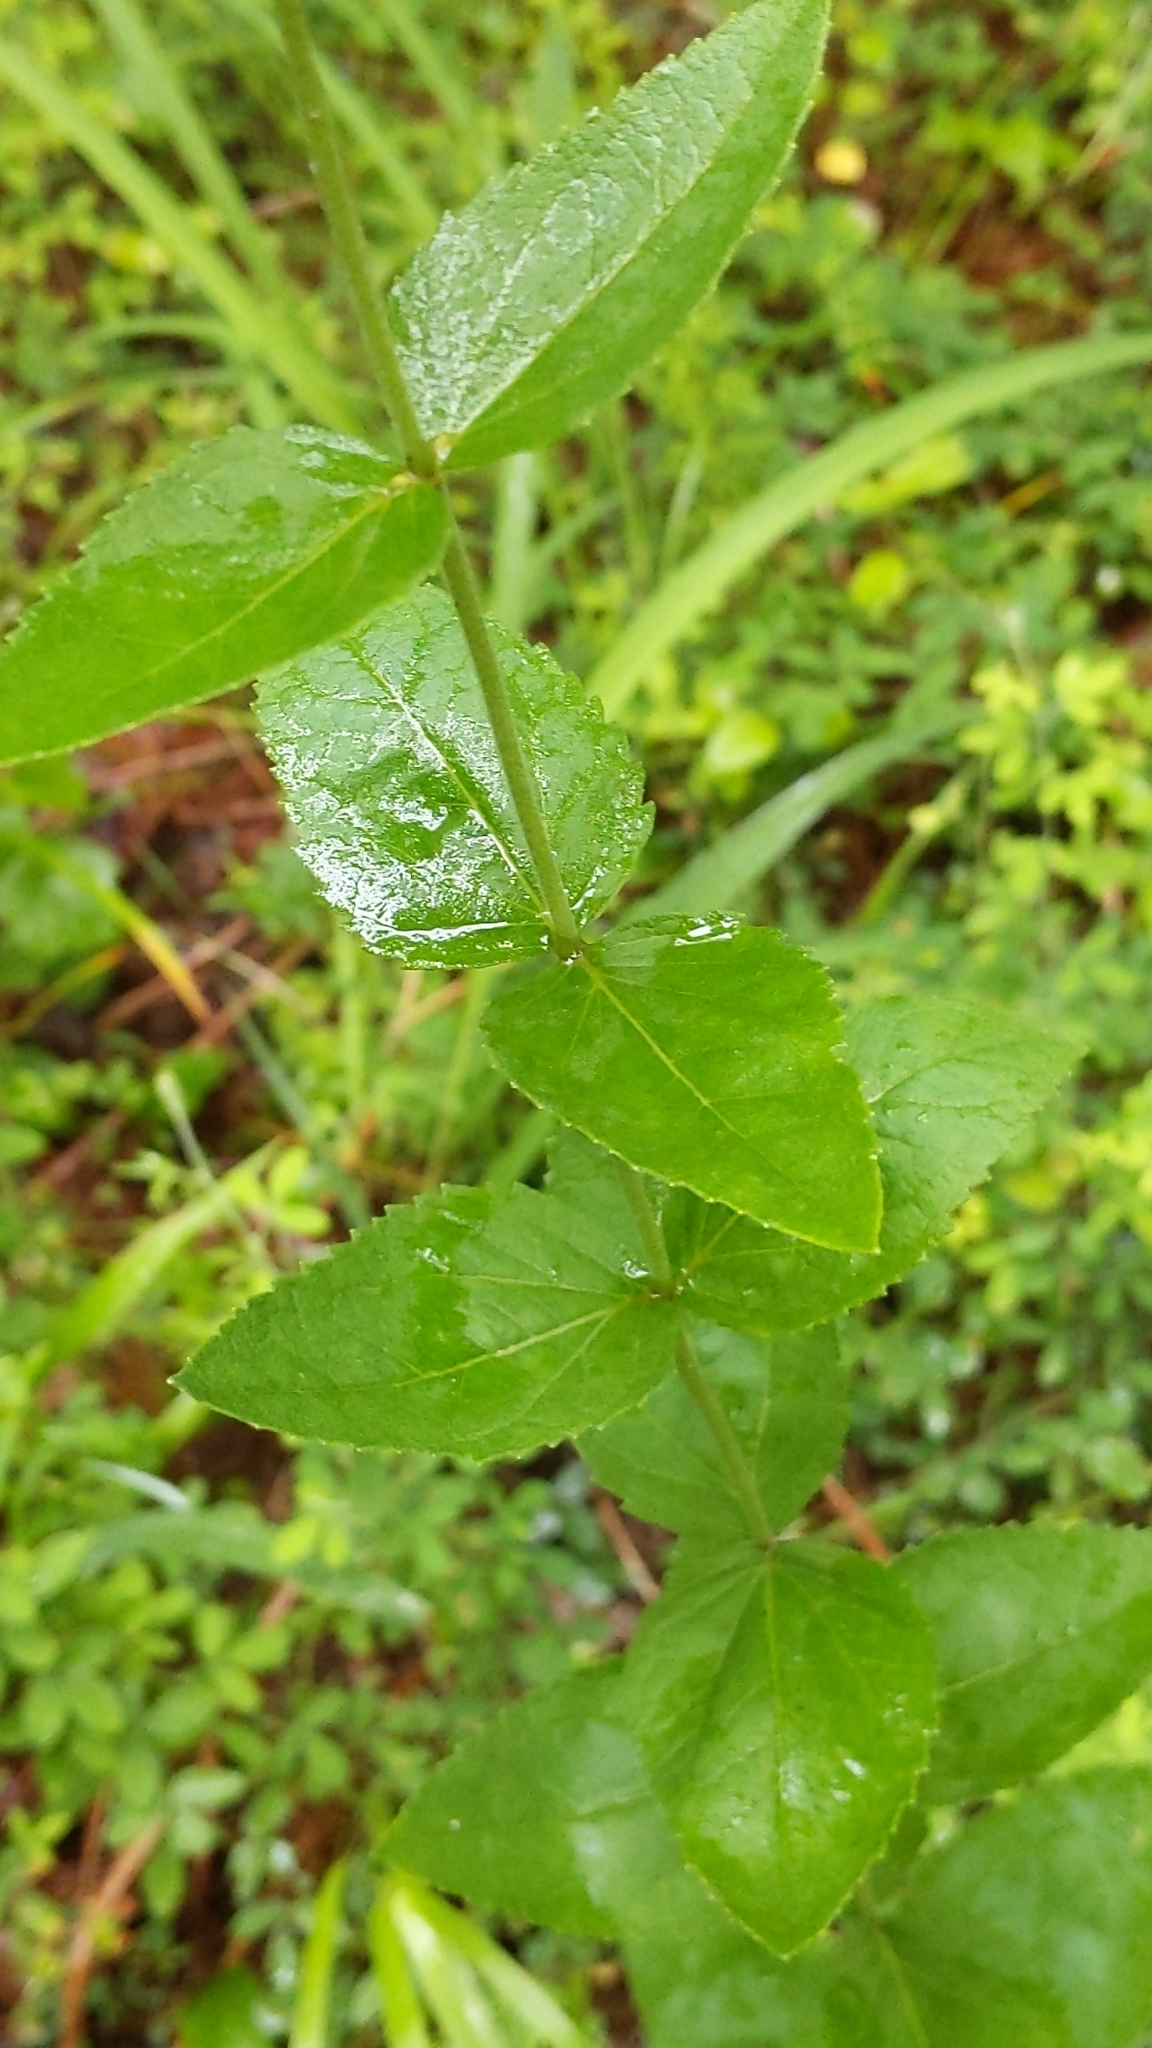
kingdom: Plantae
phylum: Tracheophyta
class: Magnoliopsida
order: Asterales
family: Asteraceae
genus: Eupatorium
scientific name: Eupatorium rotundifolium
